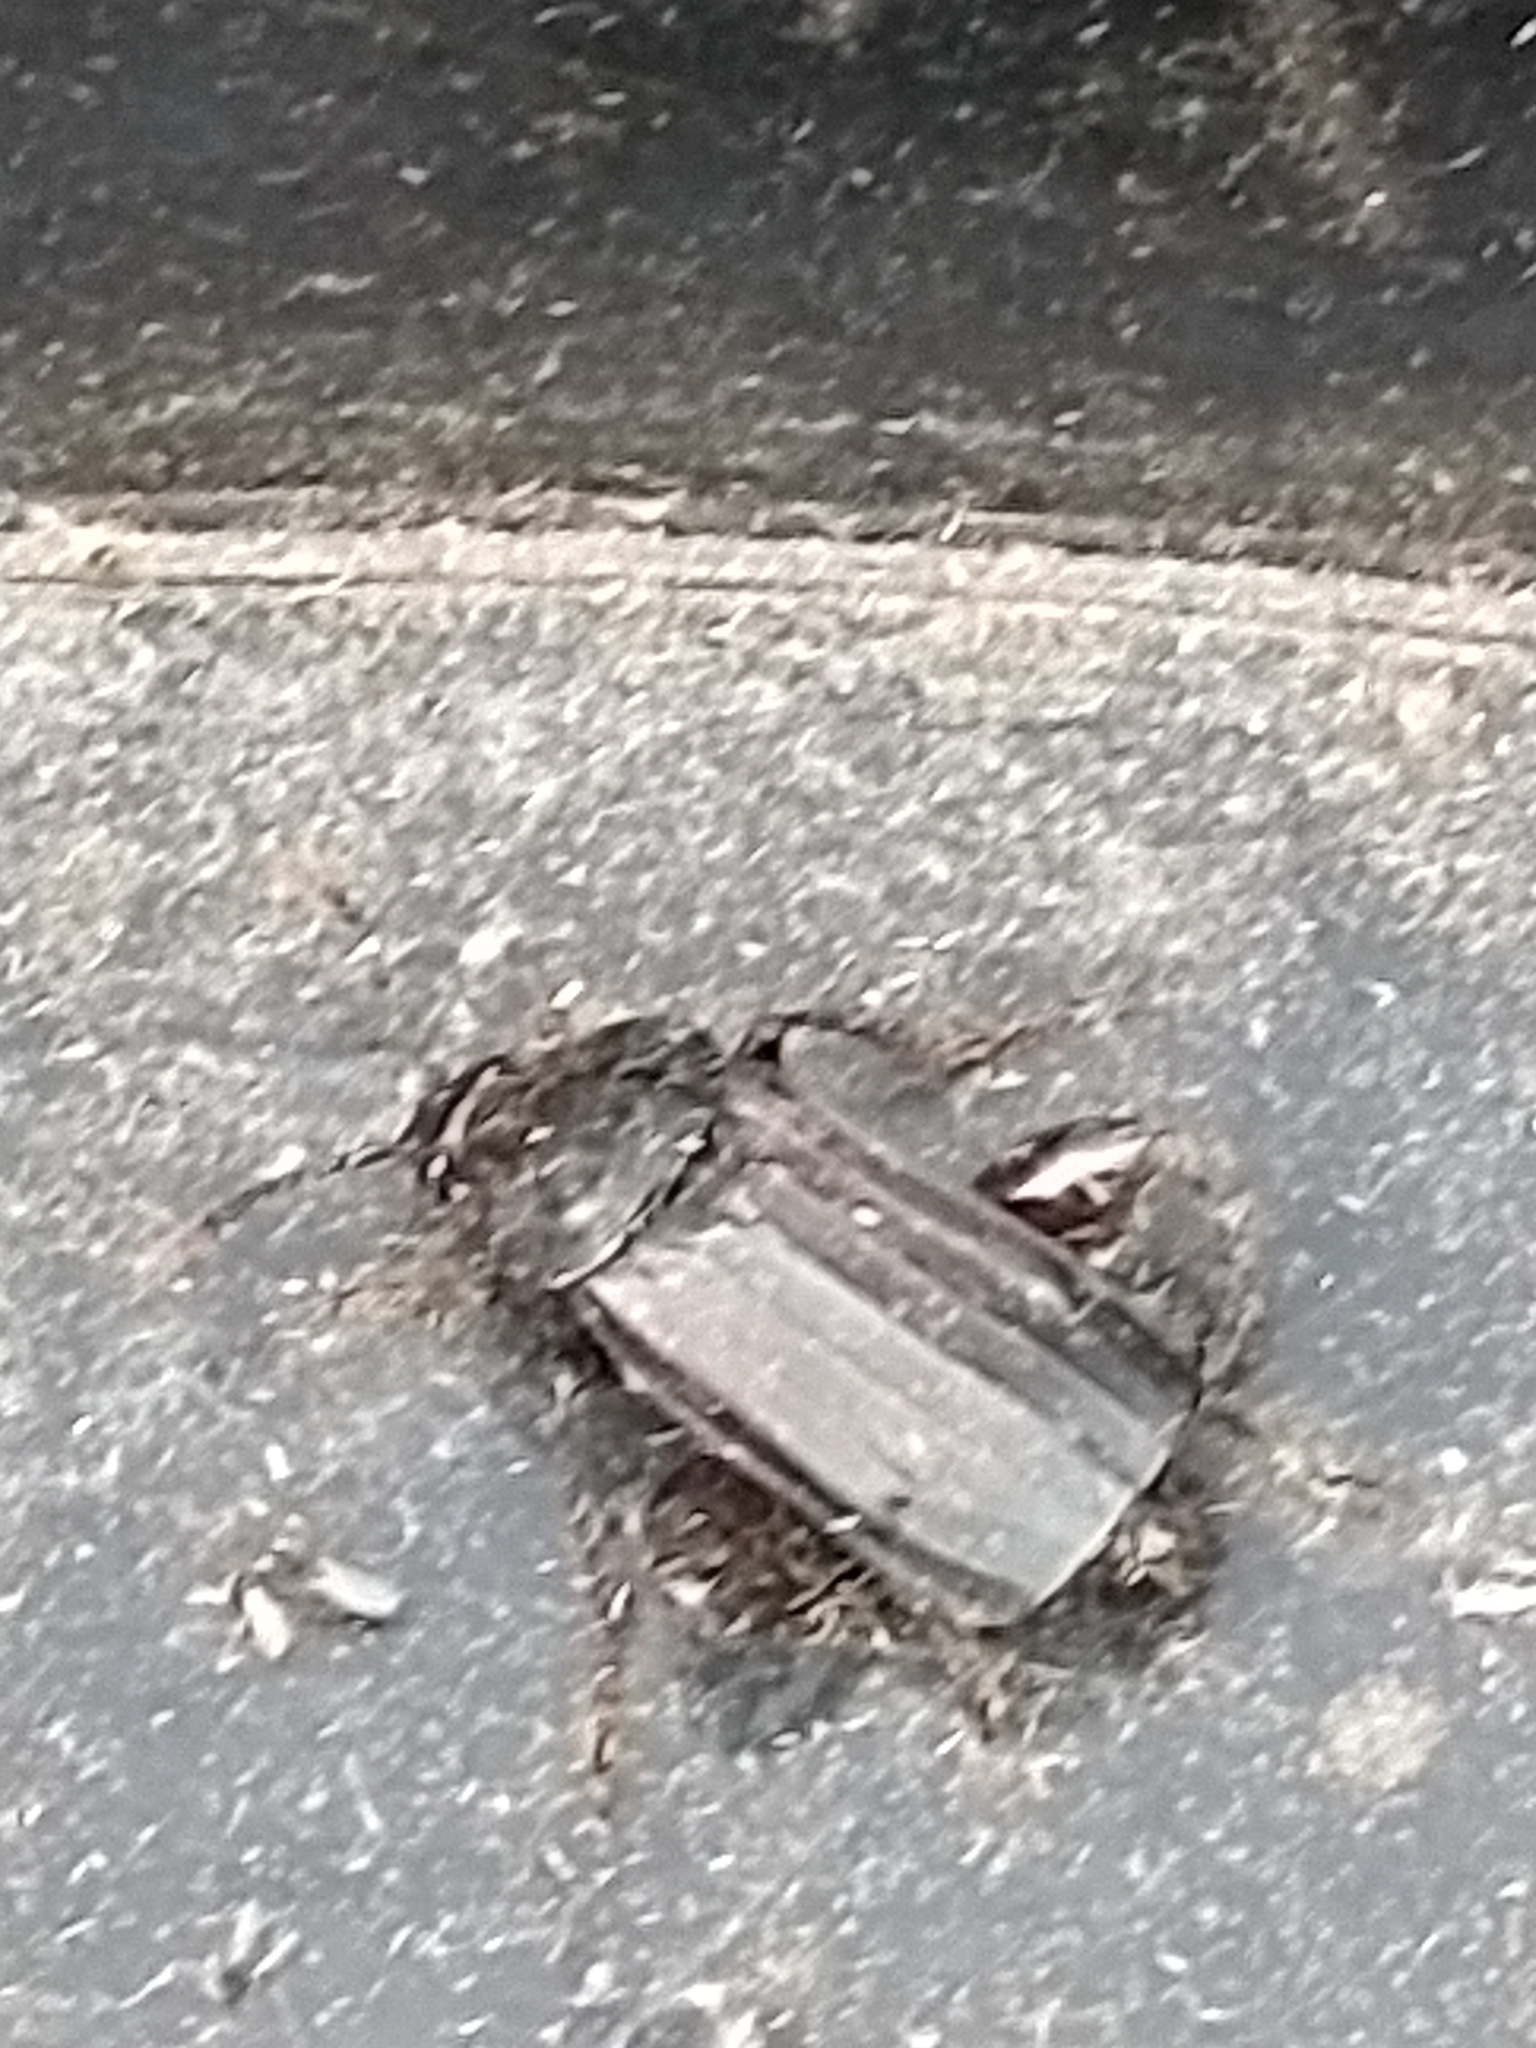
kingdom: Animalia
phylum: Arthropoda
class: Insecta
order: Coleoptera
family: Staphylinidae
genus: Necrodes
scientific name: Necrodes littoralis
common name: Shore sexton beetle
